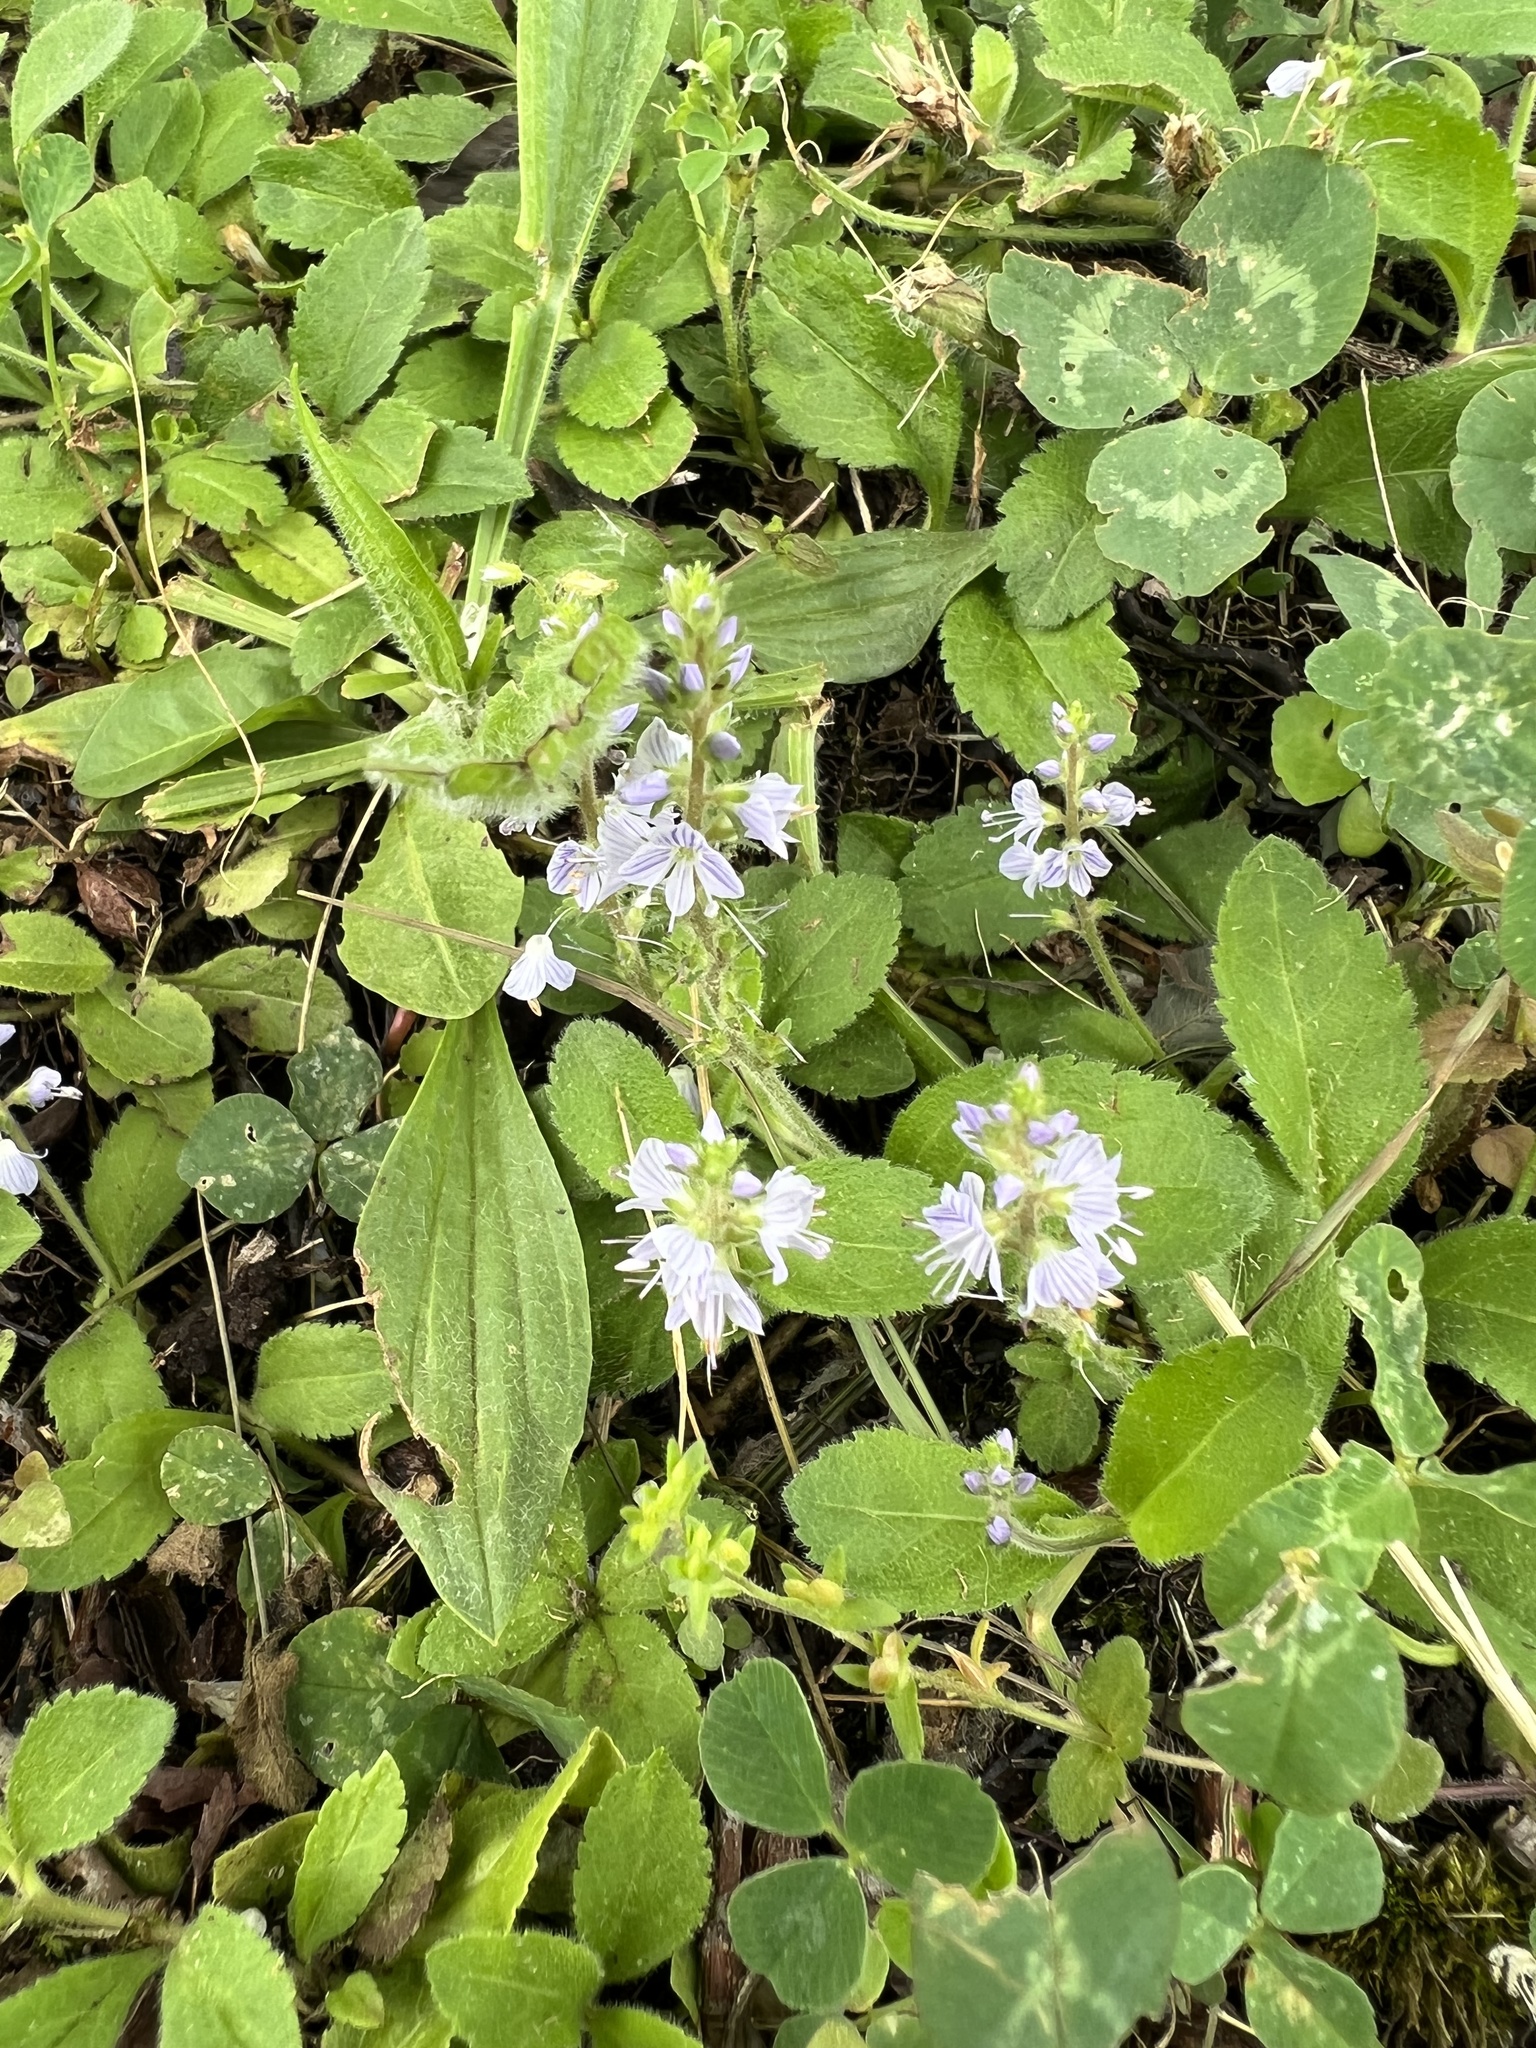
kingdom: Plantae
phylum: Tracheophyta
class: Magnoliopsida
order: Lamiales
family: Plantaginaceae
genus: Veronica
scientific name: Veronica officinalis
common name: Common speedwell
